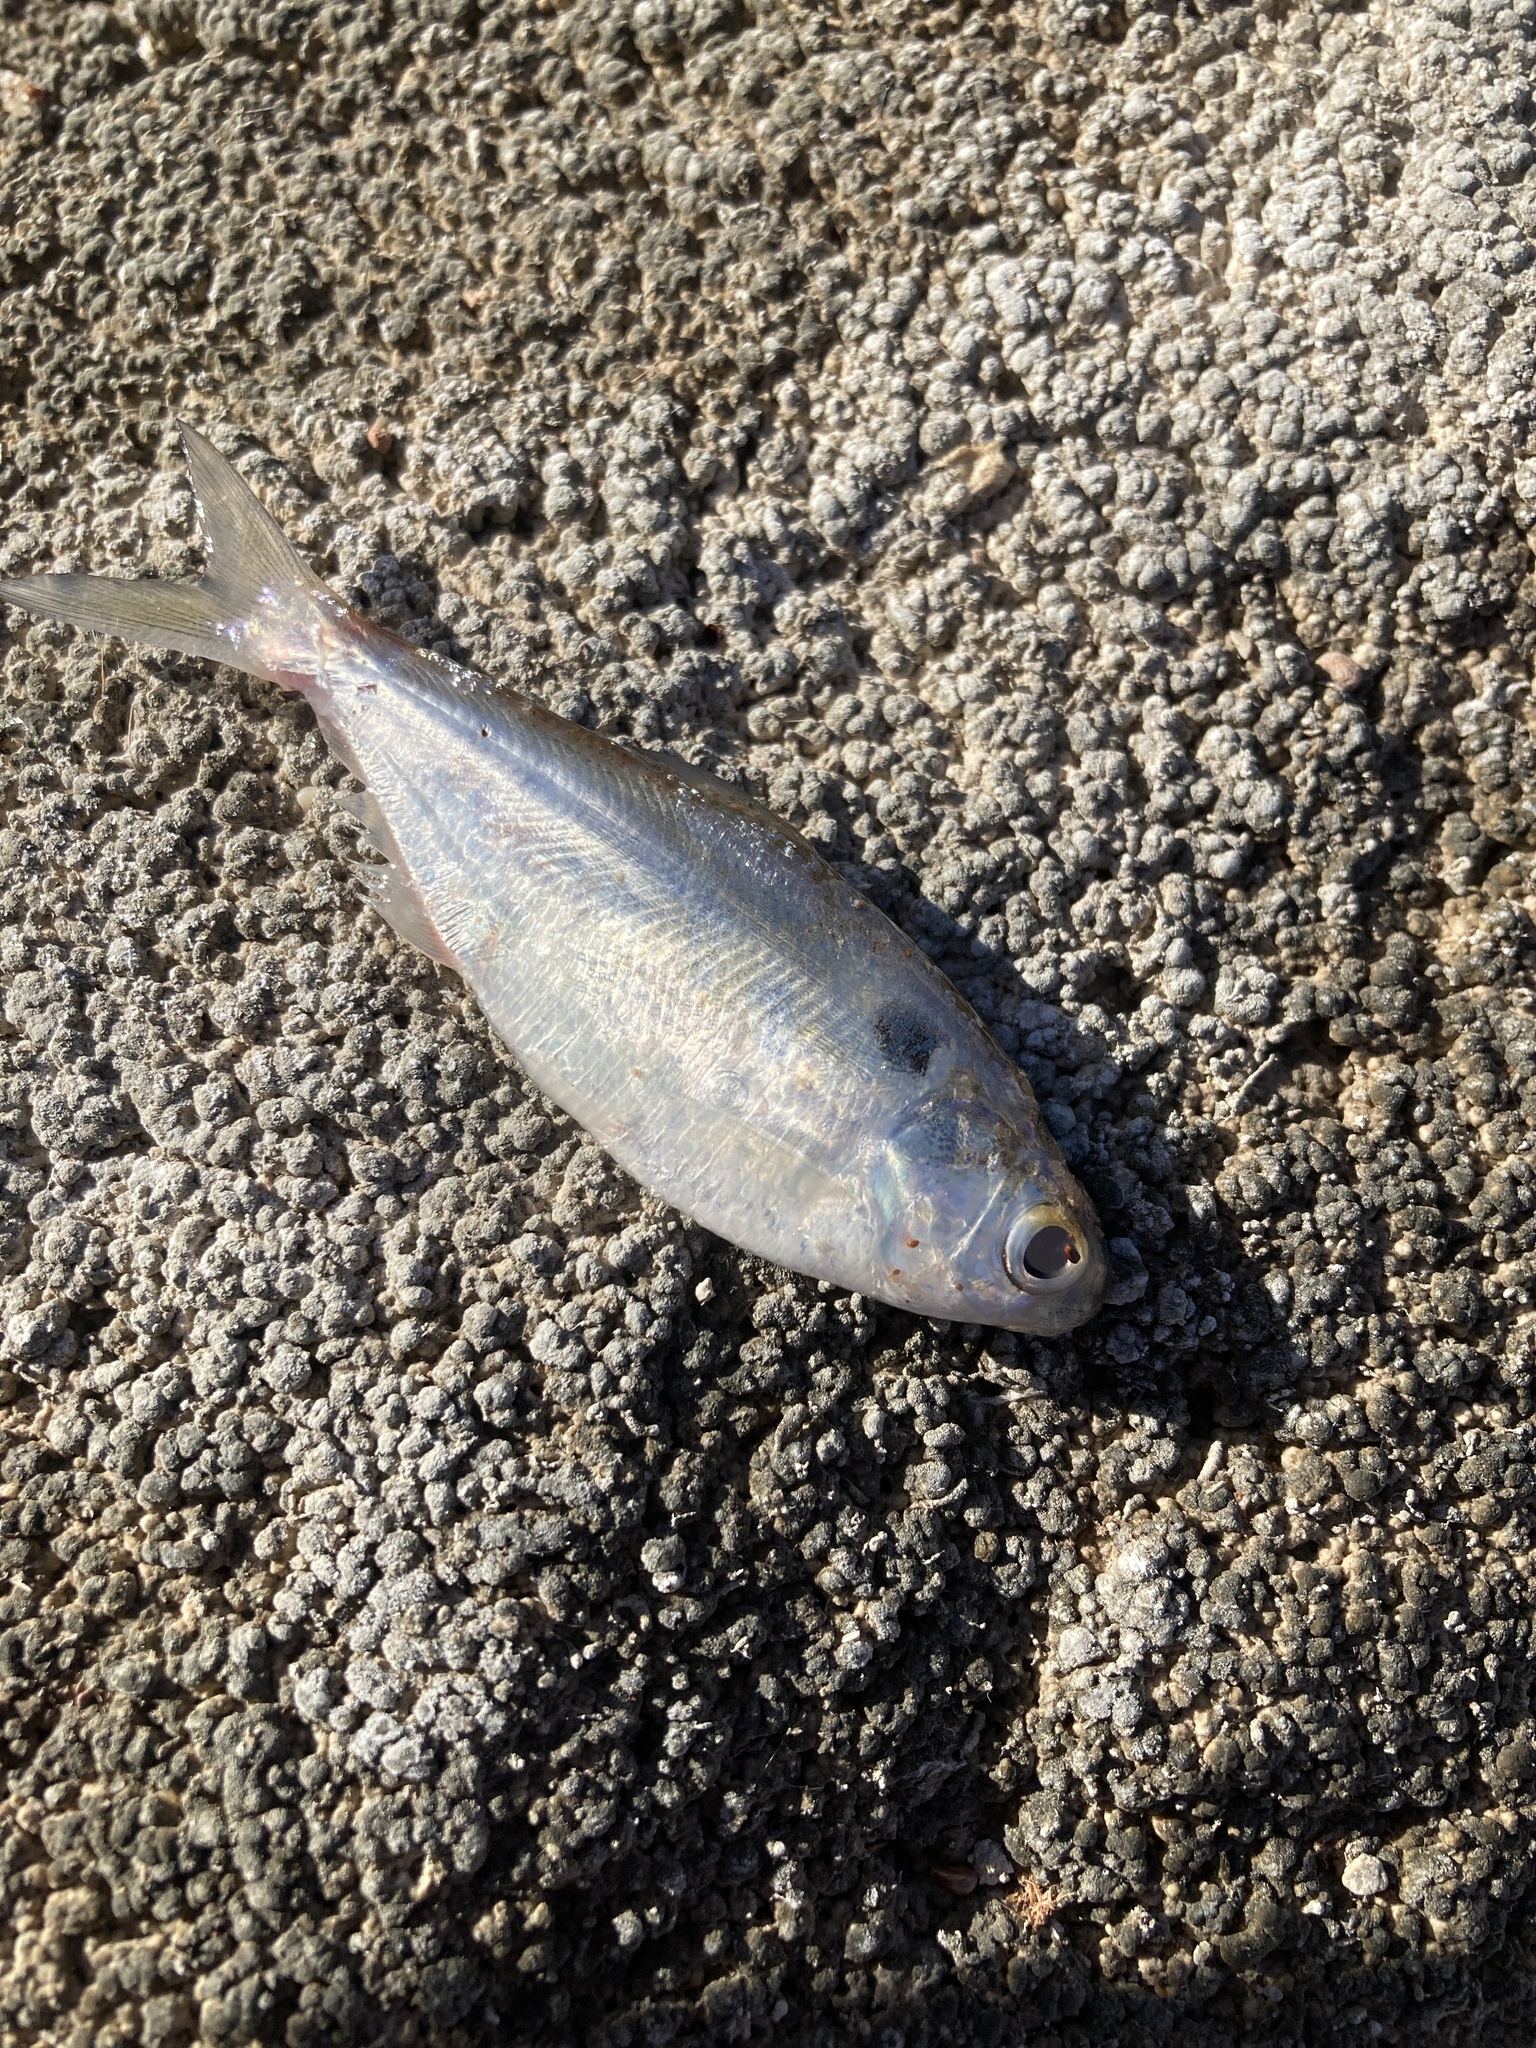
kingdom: Animalia
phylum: Chordata
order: Clupeiformes
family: Clupeidae
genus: Dorosoma
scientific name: Dorosoma cepedianum
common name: Gizzard shad
